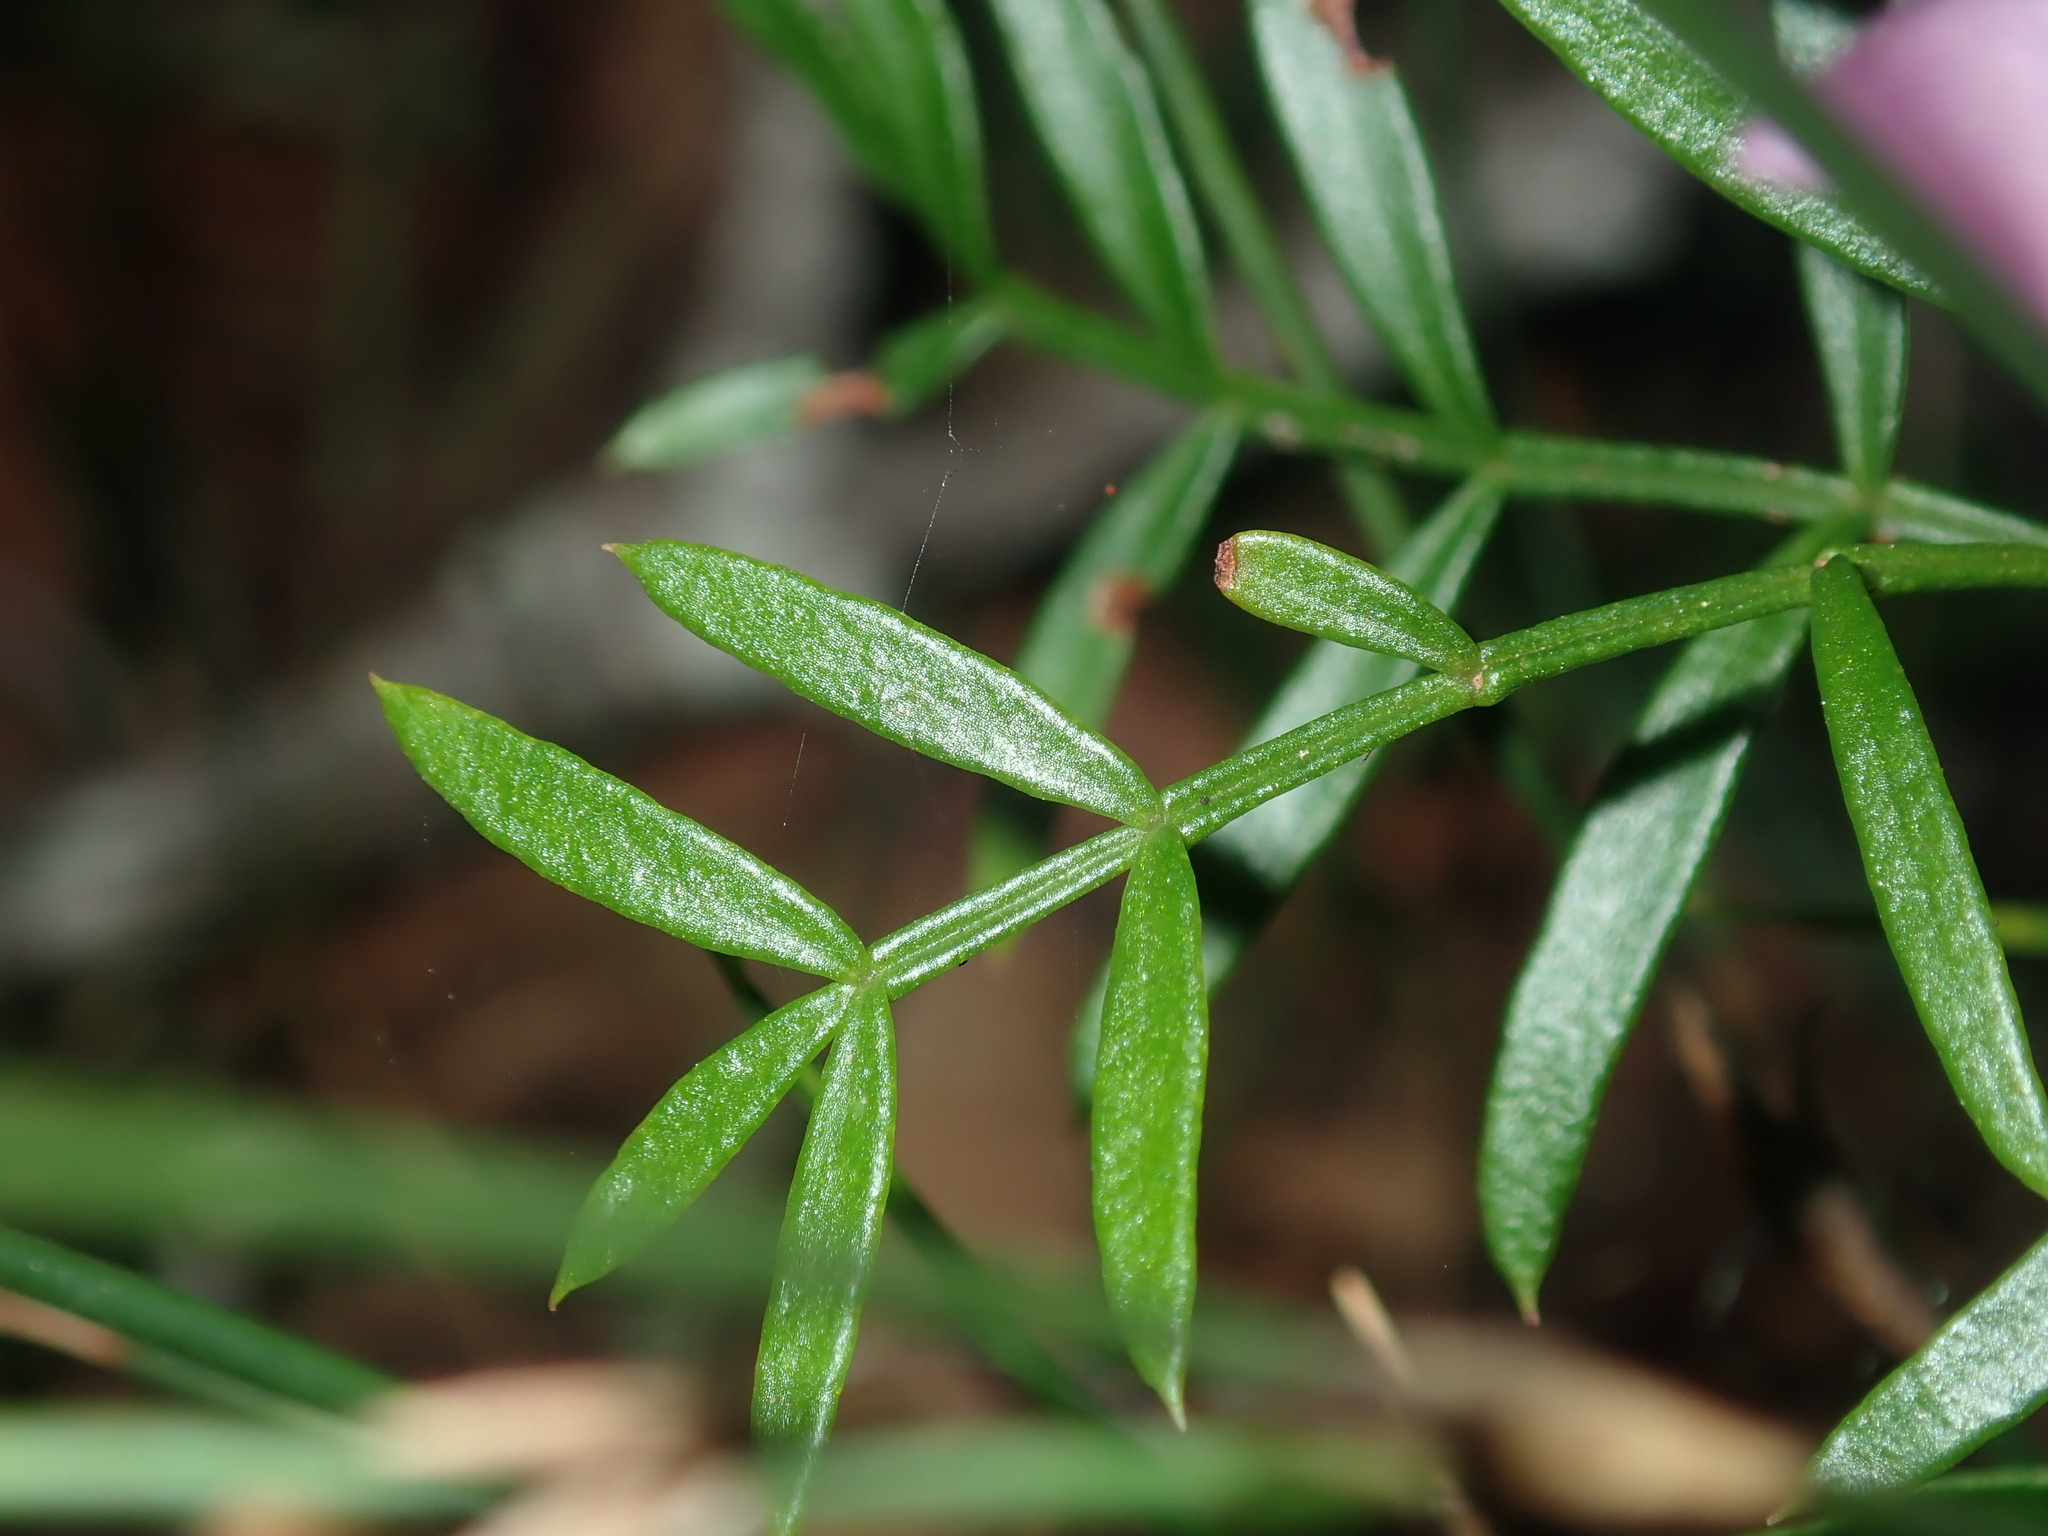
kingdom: Plantae
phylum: Tracheophyta
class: Magnoliopsida
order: Sapindales
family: Rutaceae
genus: Boronia
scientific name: Boronia pinnata
